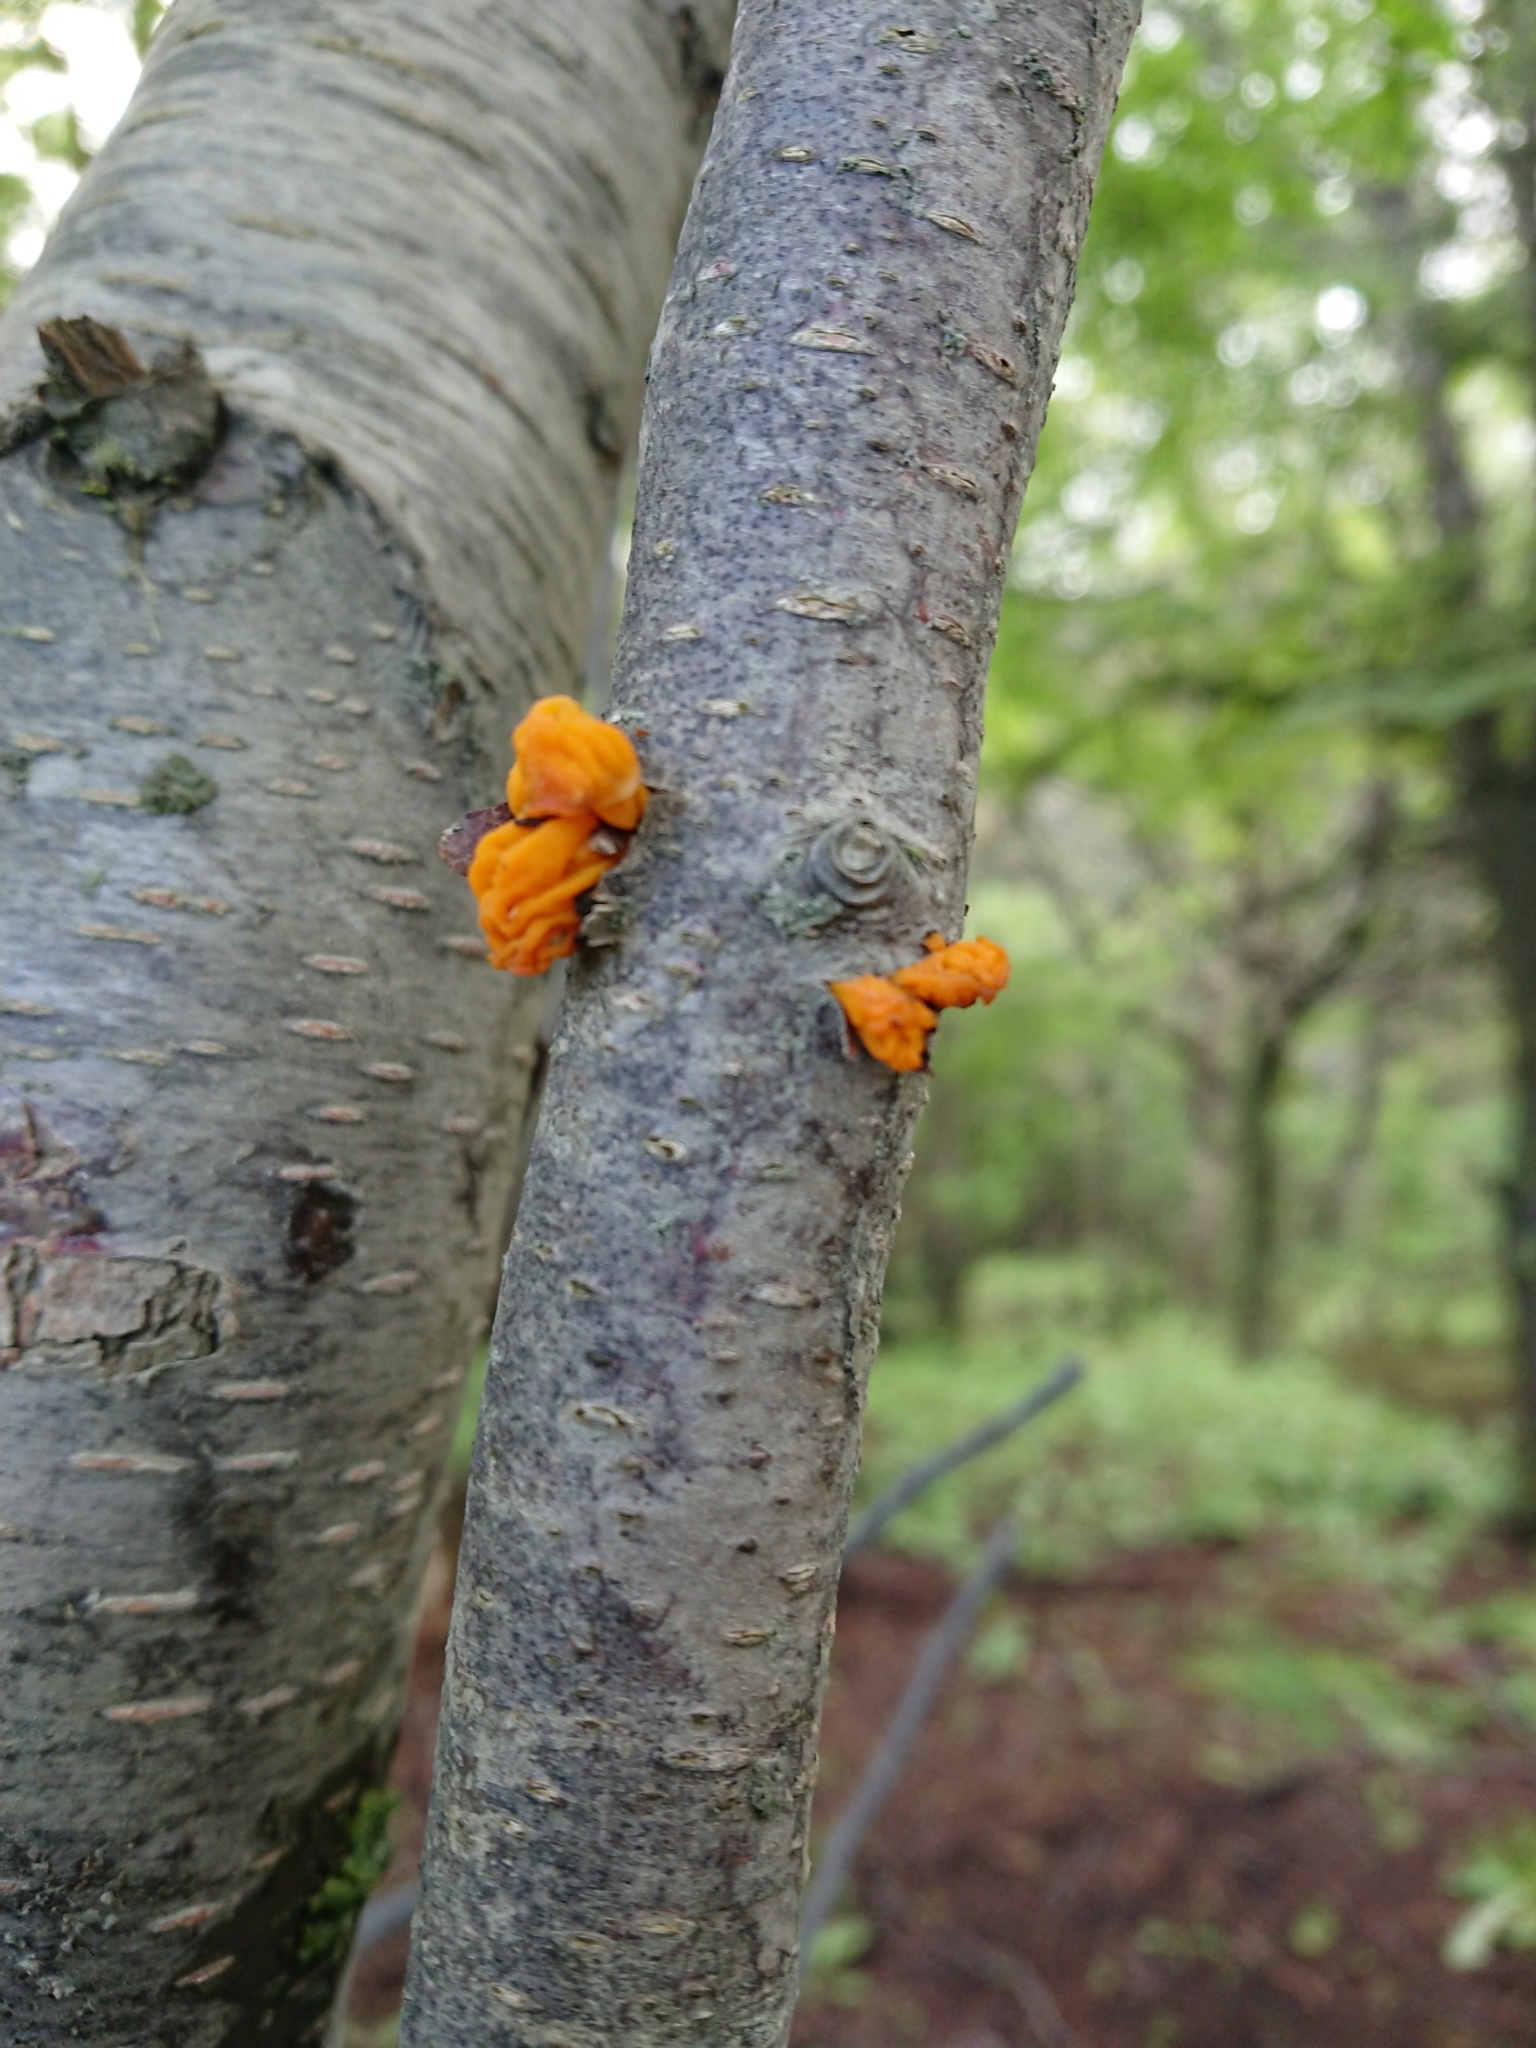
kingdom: Fungi
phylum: Basidiomycota
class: Tremellomycetes
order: Tremellales
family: Tremellaceae
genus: Tremella
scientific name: Tremella mesenterica
